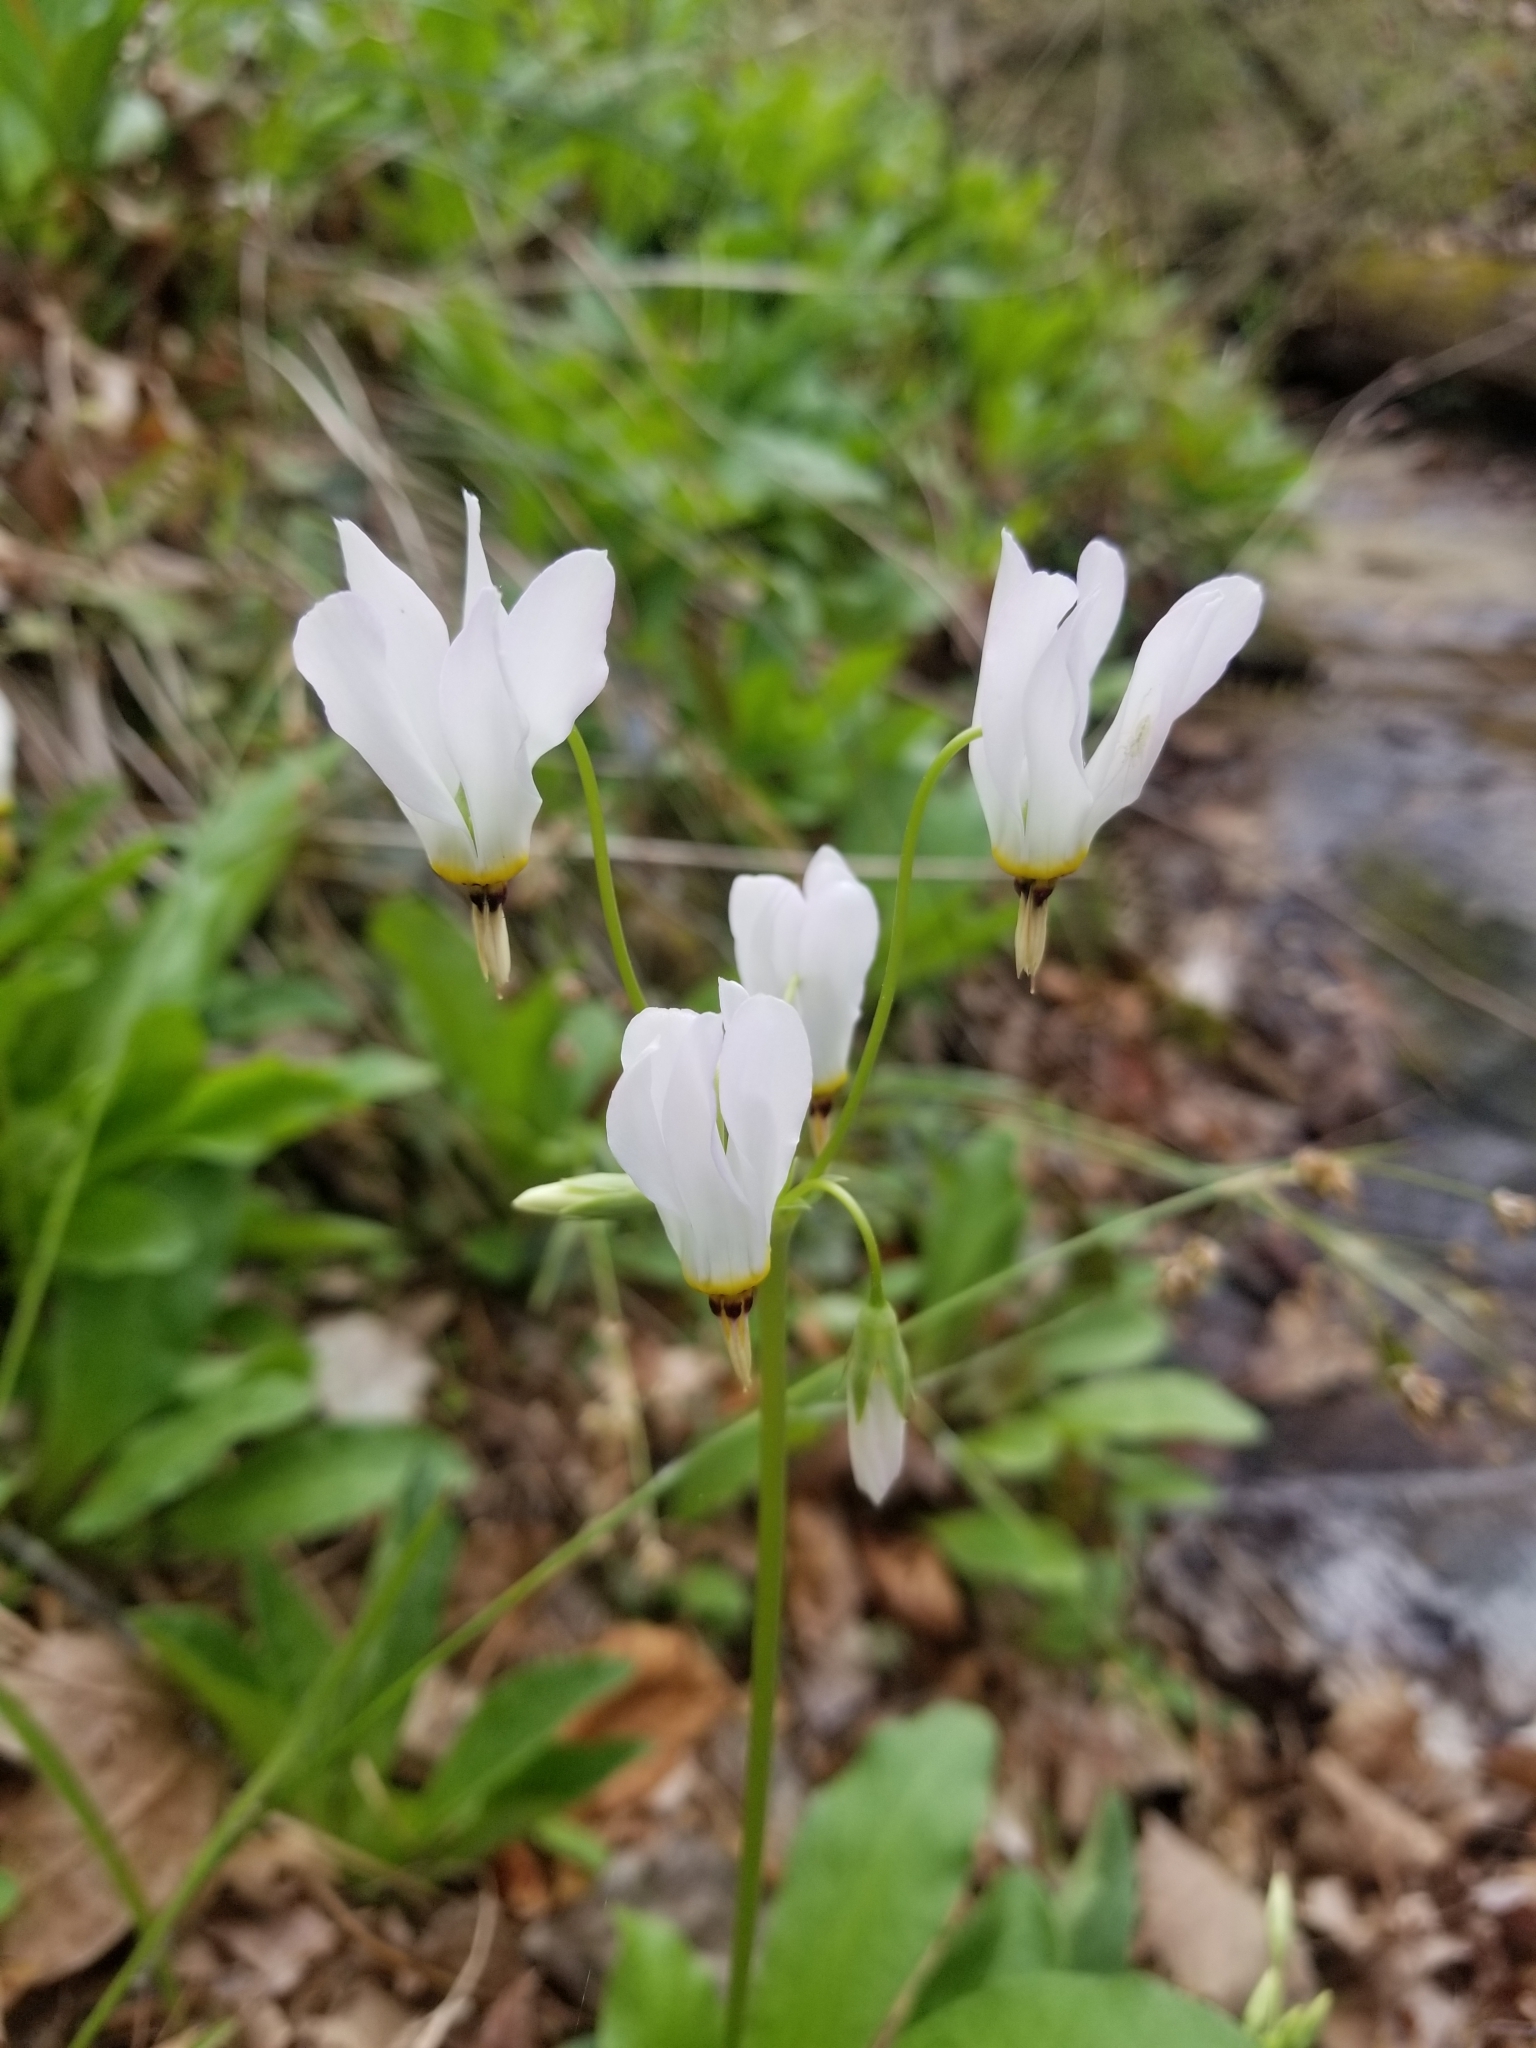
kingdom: Plantae
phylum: Tracheophyta
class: Magnoliopsida
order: Ericales
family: Primulaceae
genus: Dodecatheon
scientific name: Dodecatheon meadia
